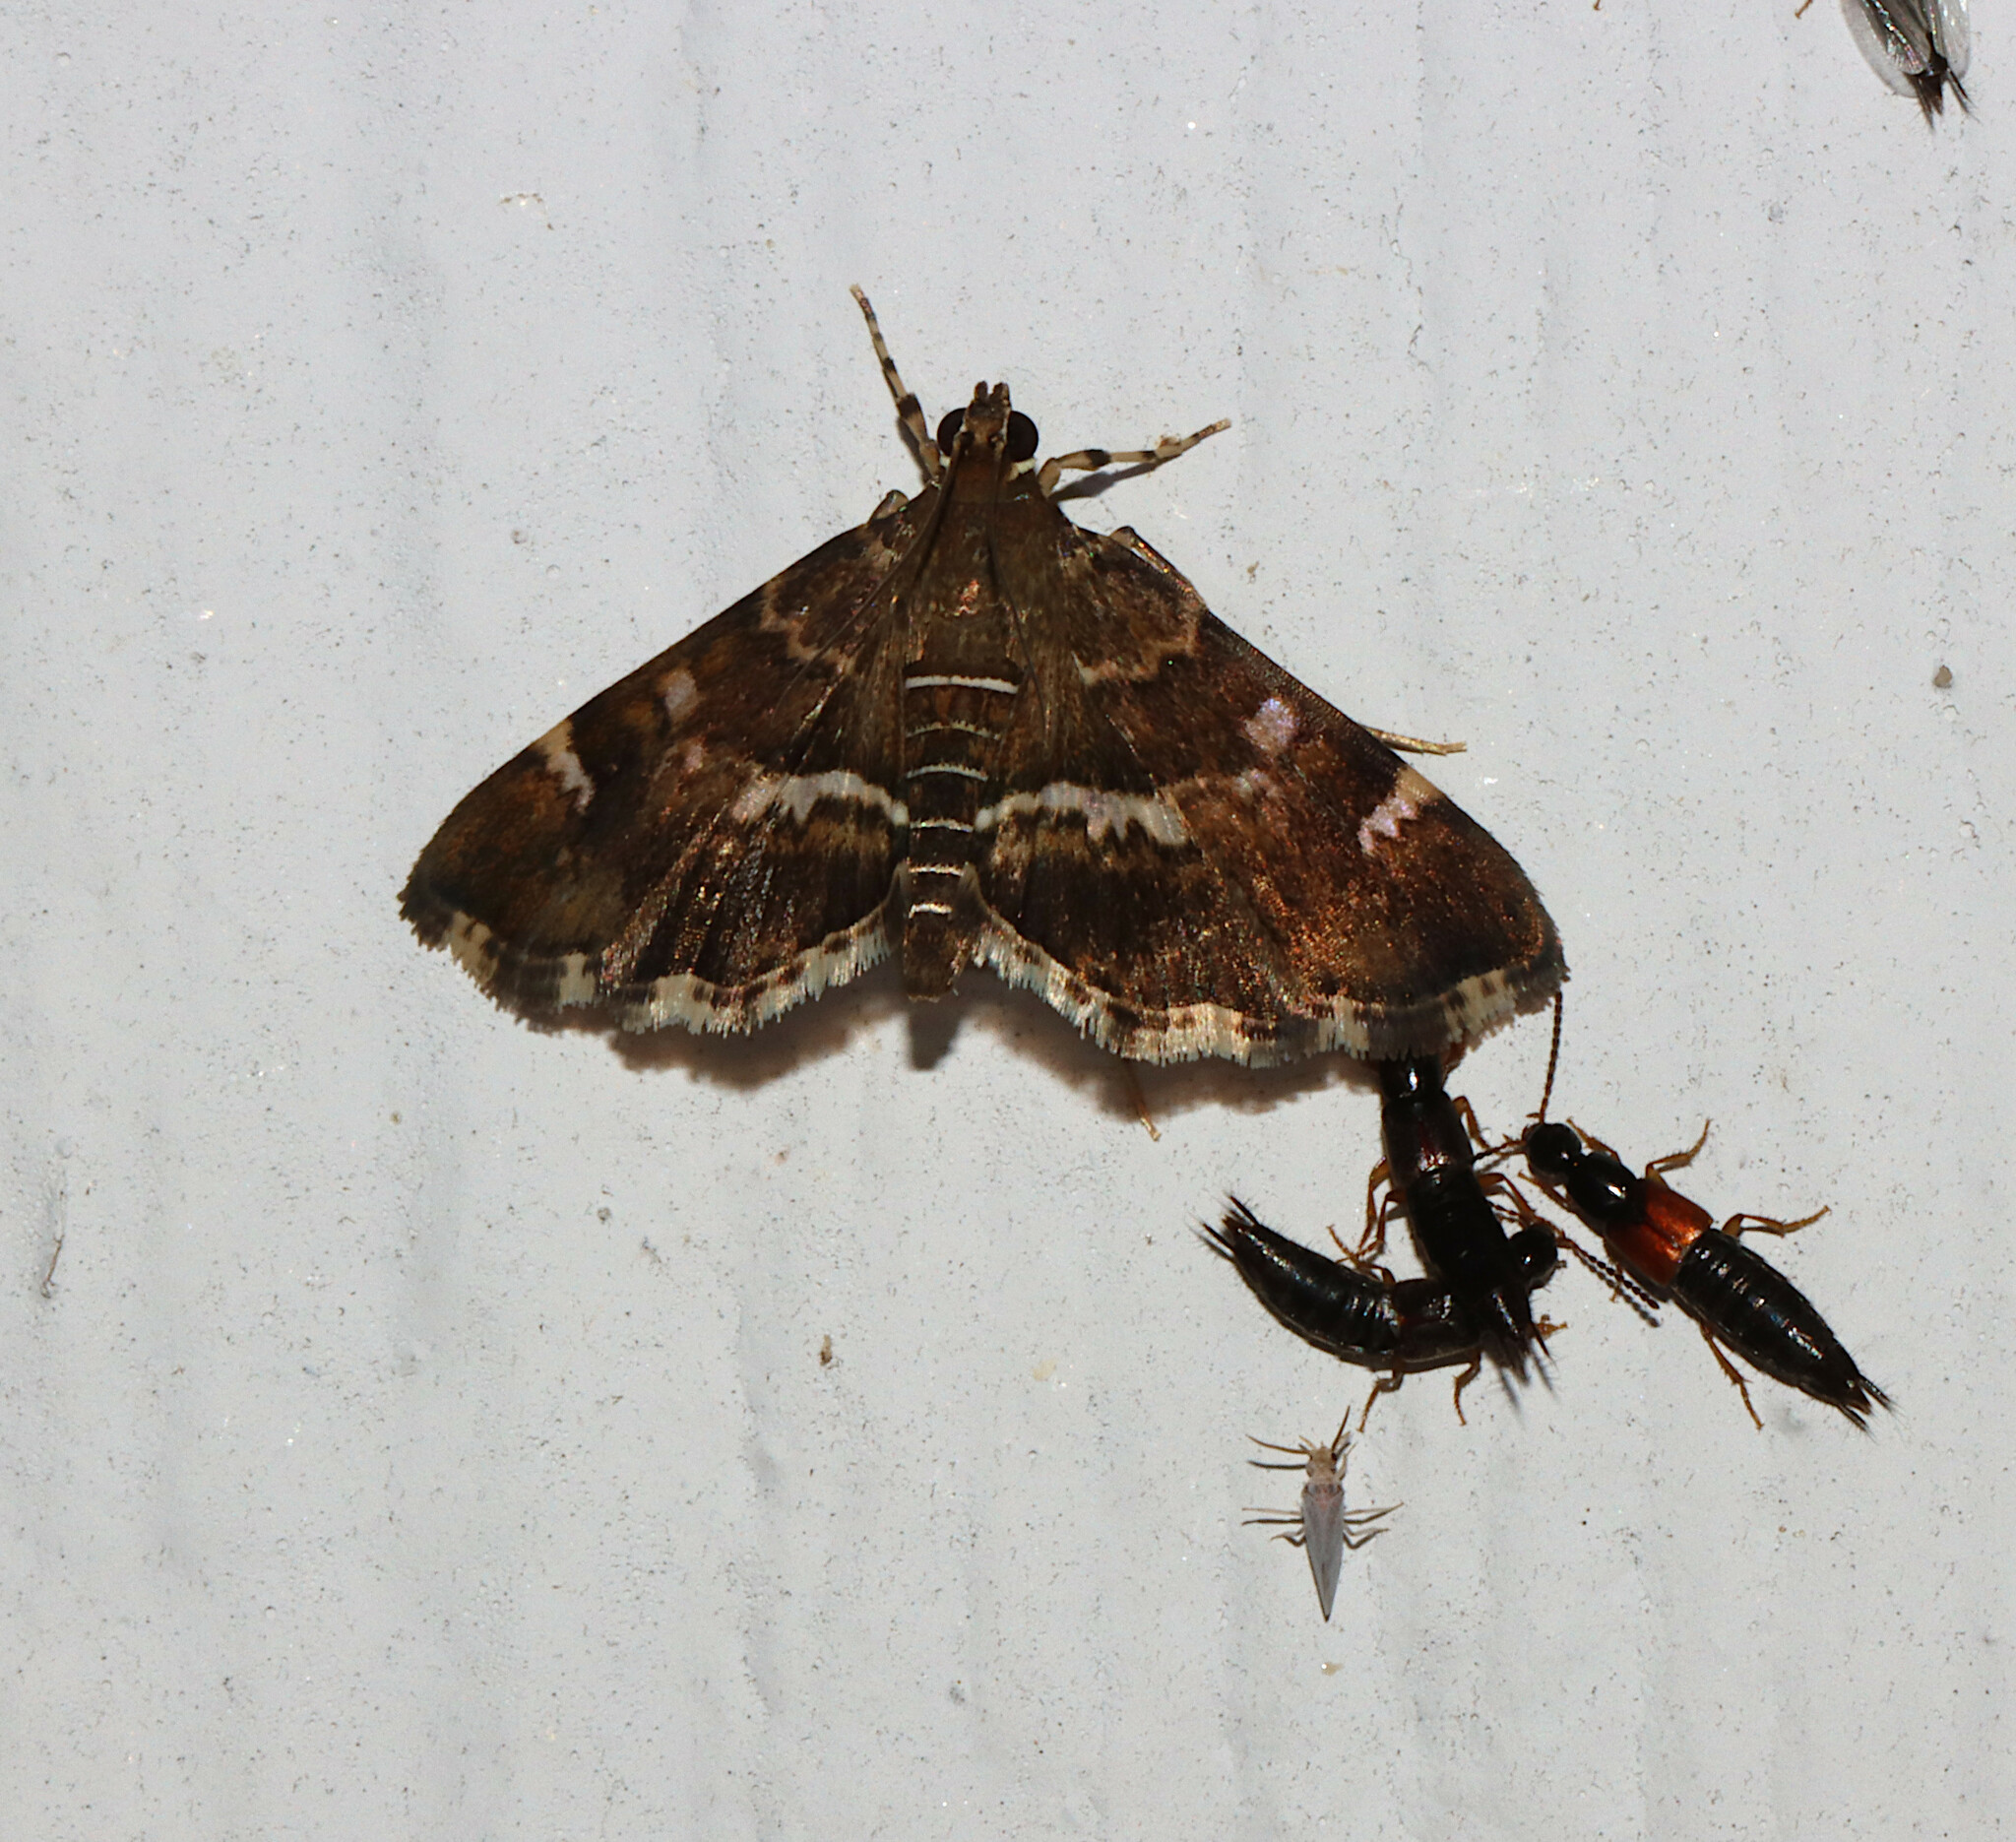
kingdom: Animalia
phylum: Arthropoda
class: Insecta
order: Lepidoptera
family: Crambidae
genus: Hymenia
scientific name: Hymenia perspectalis
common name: Spotted beet webworm
